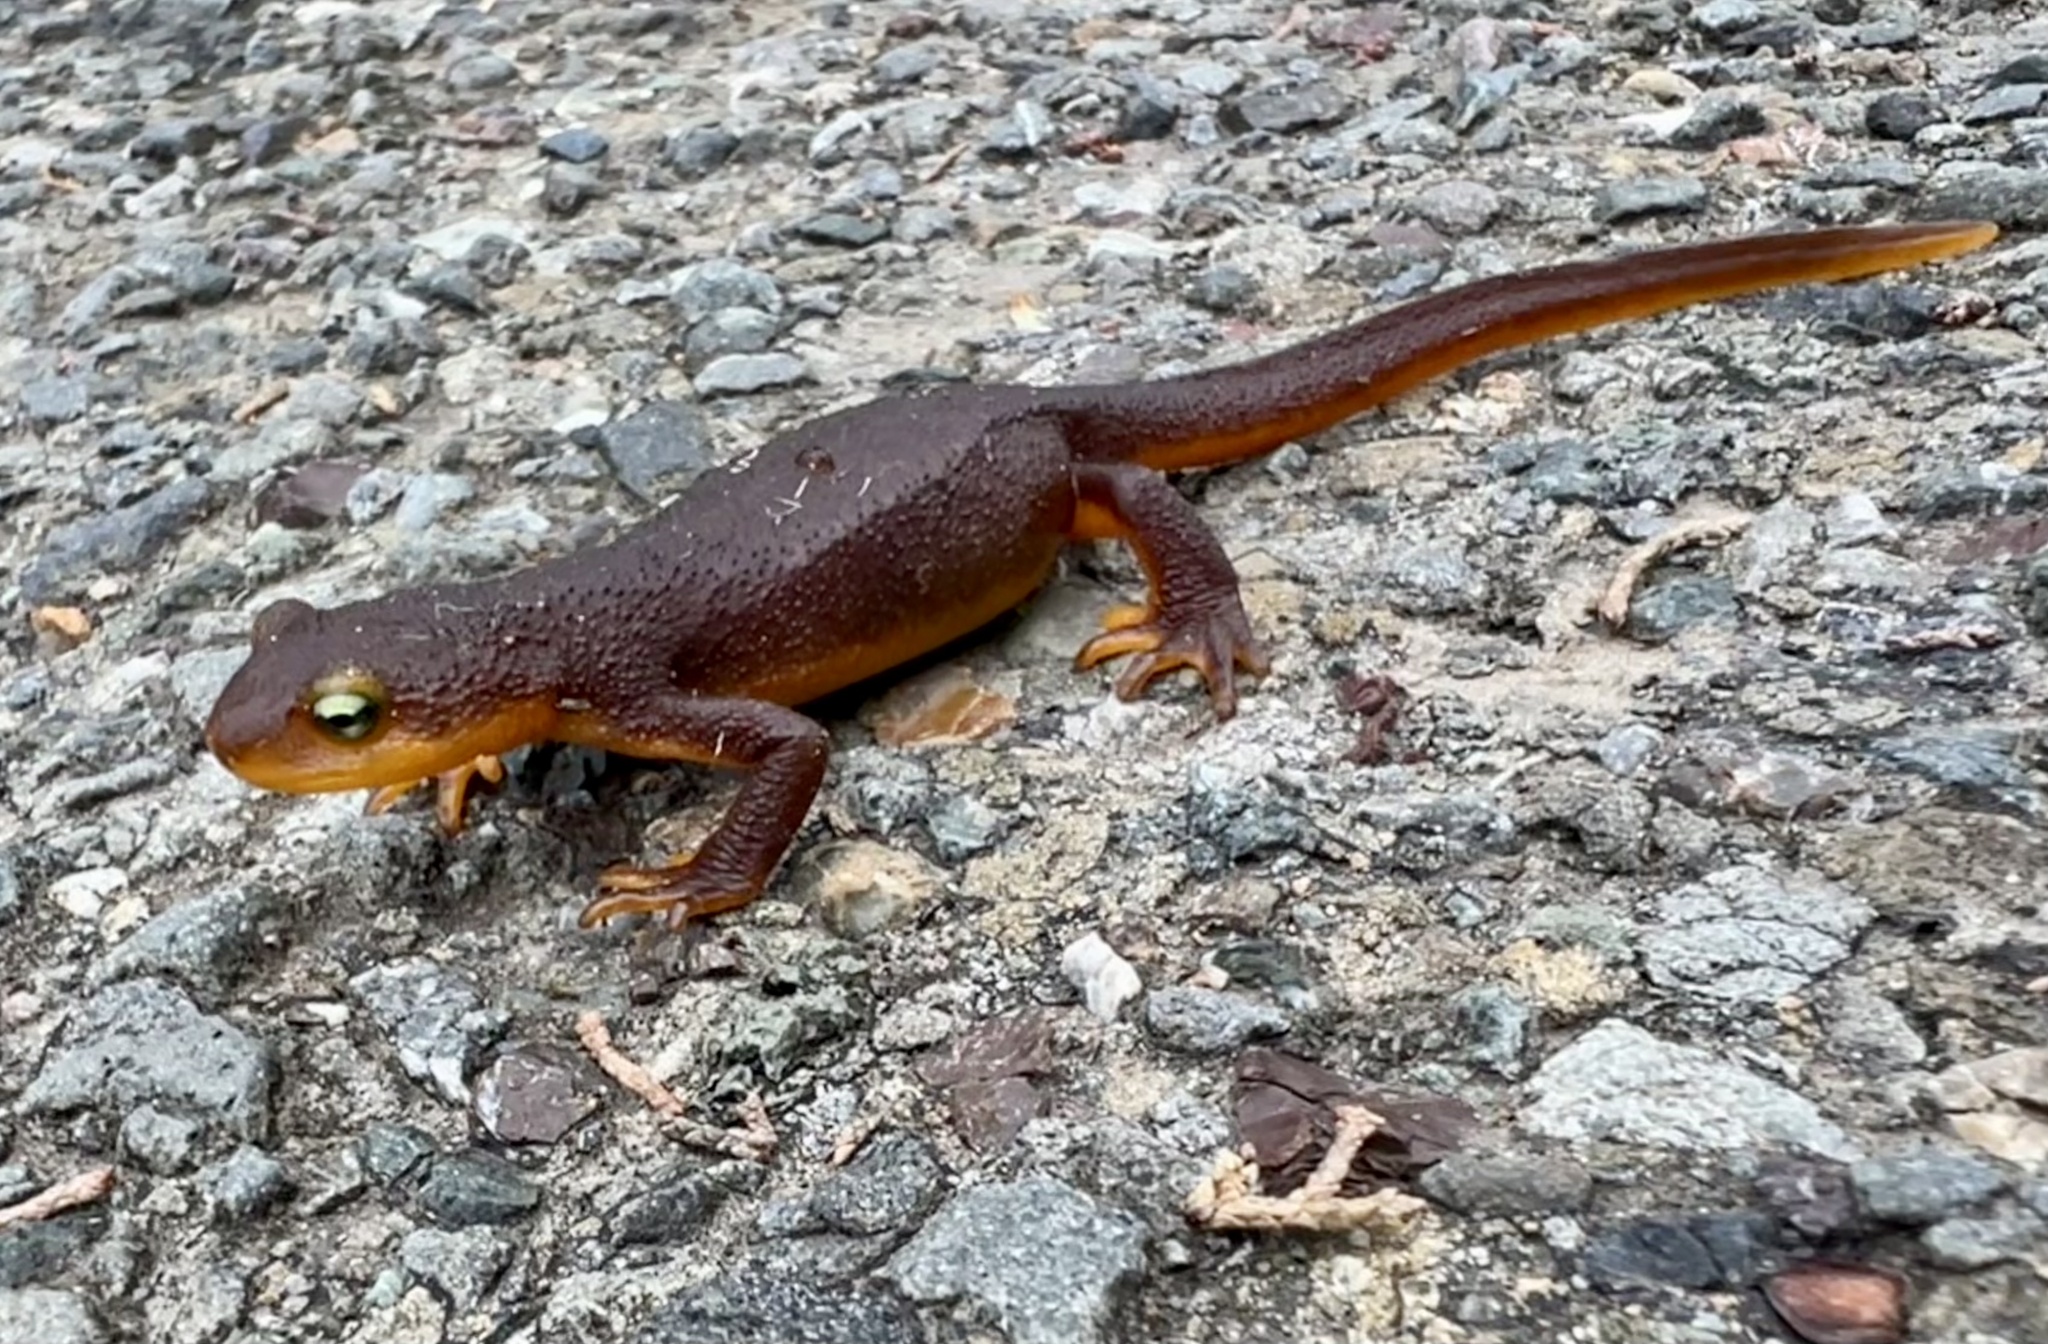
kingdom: Animalia
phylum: Chordata
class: Amphibia
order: Caudata
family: Salamandridae
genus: Taricha
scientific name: Taricha torosa
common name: California newt
